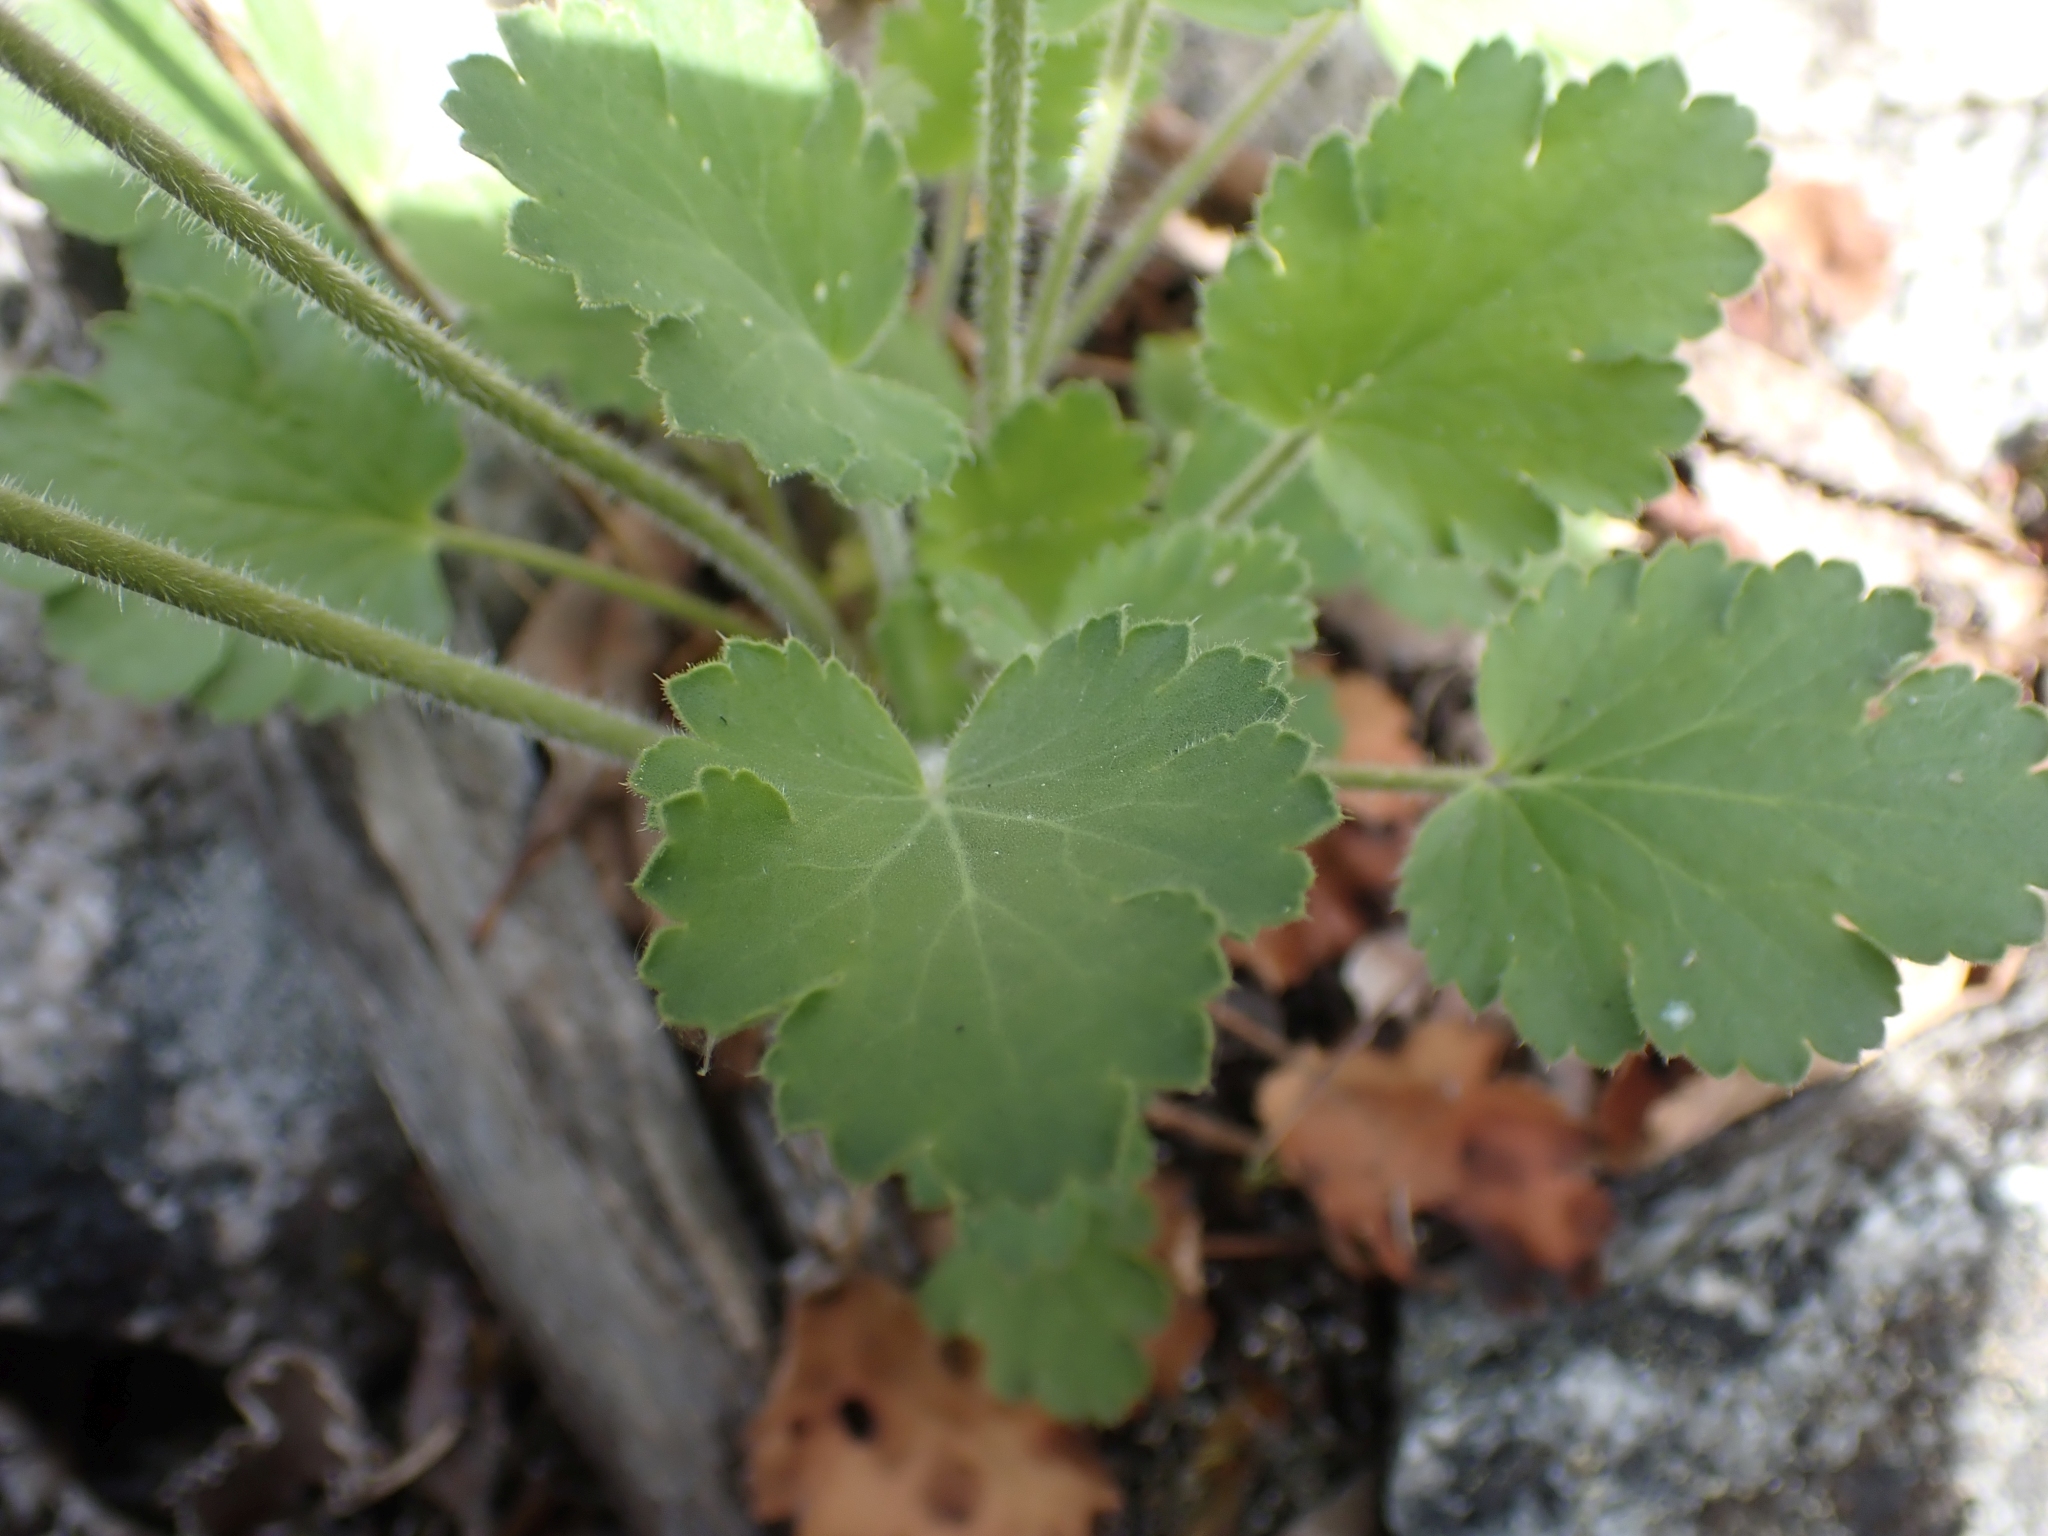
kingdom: Plantae
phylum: Tracheophyta
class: Magnoliopsida
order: Saxifragales
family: Saxifragaceae
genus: Heuchera
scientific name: Heuchera cylindrica
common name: Mat alumroot
